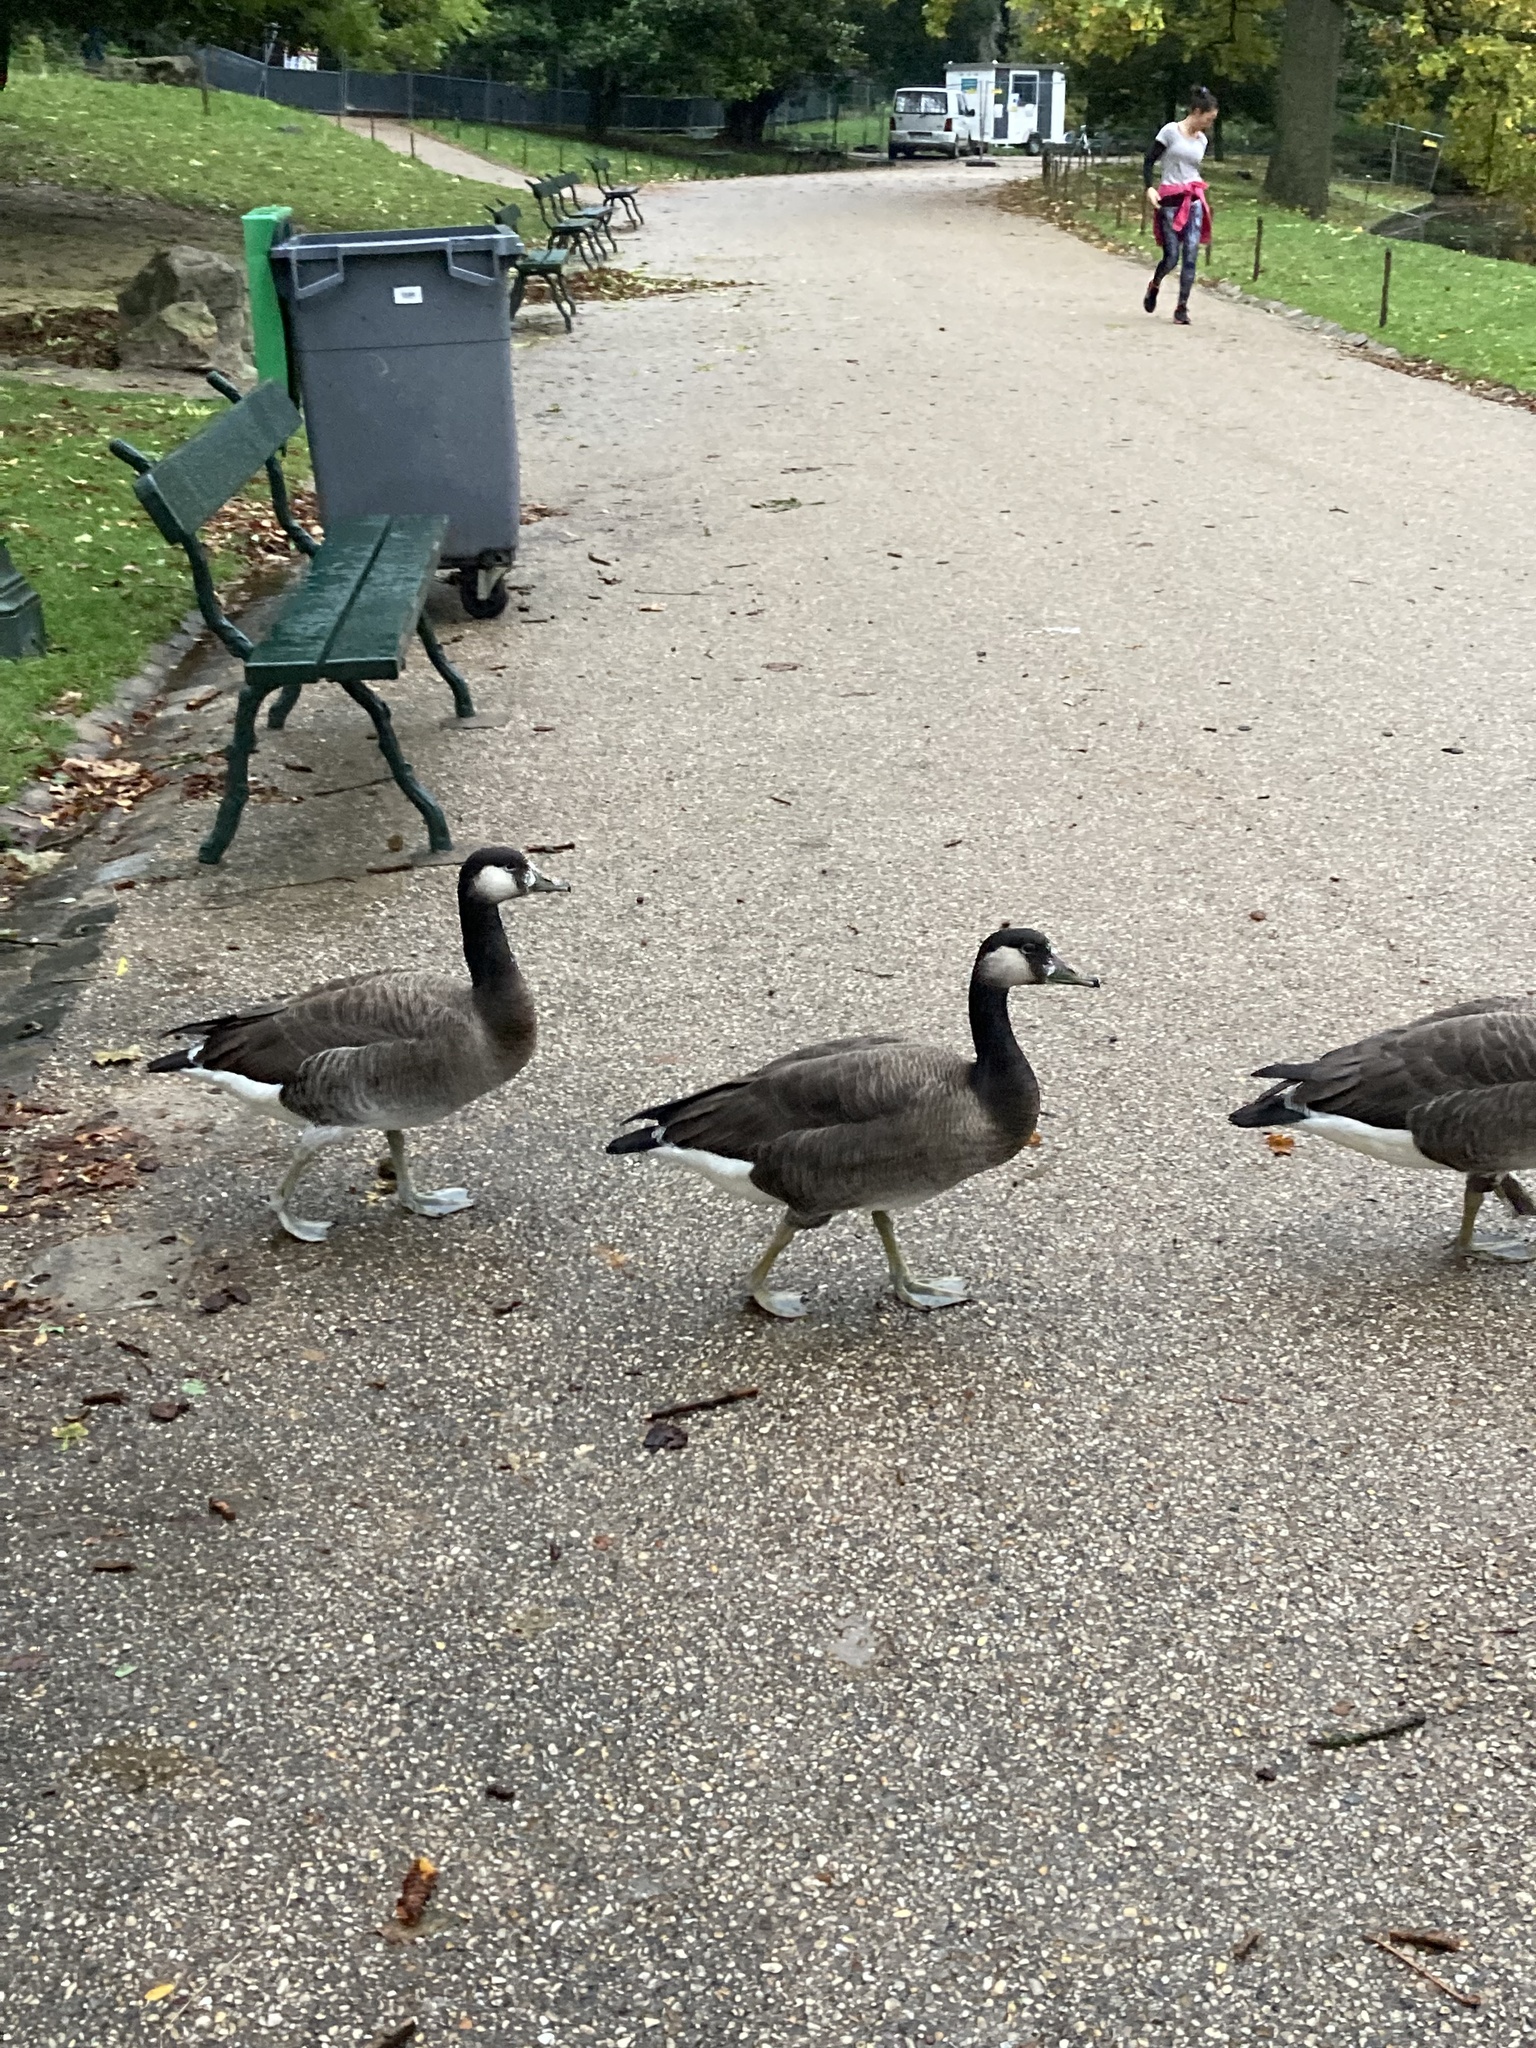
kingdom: Animalia
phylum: Chordata
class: Aves
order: Anseriformes
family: Anatidae
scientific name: Anatidae
